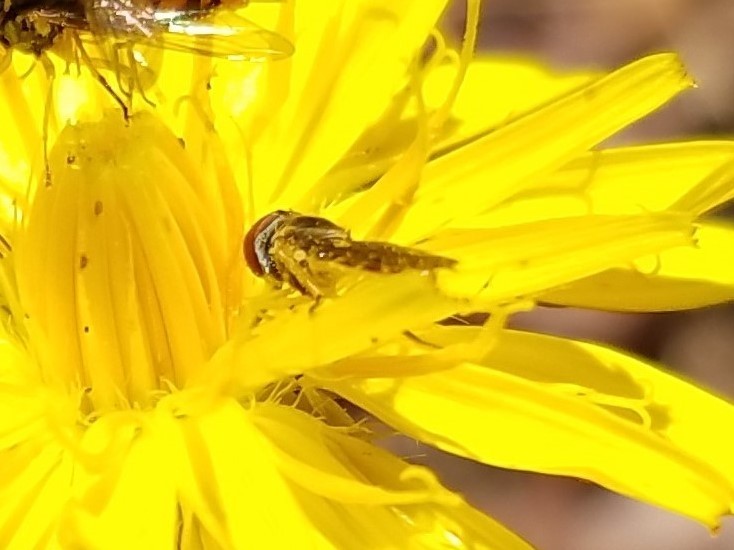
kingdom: Animalia
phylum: Arthropoda
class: Insecta
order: Diptera
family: Syrphidae
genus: Toxomerus
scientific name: Toxomerus
